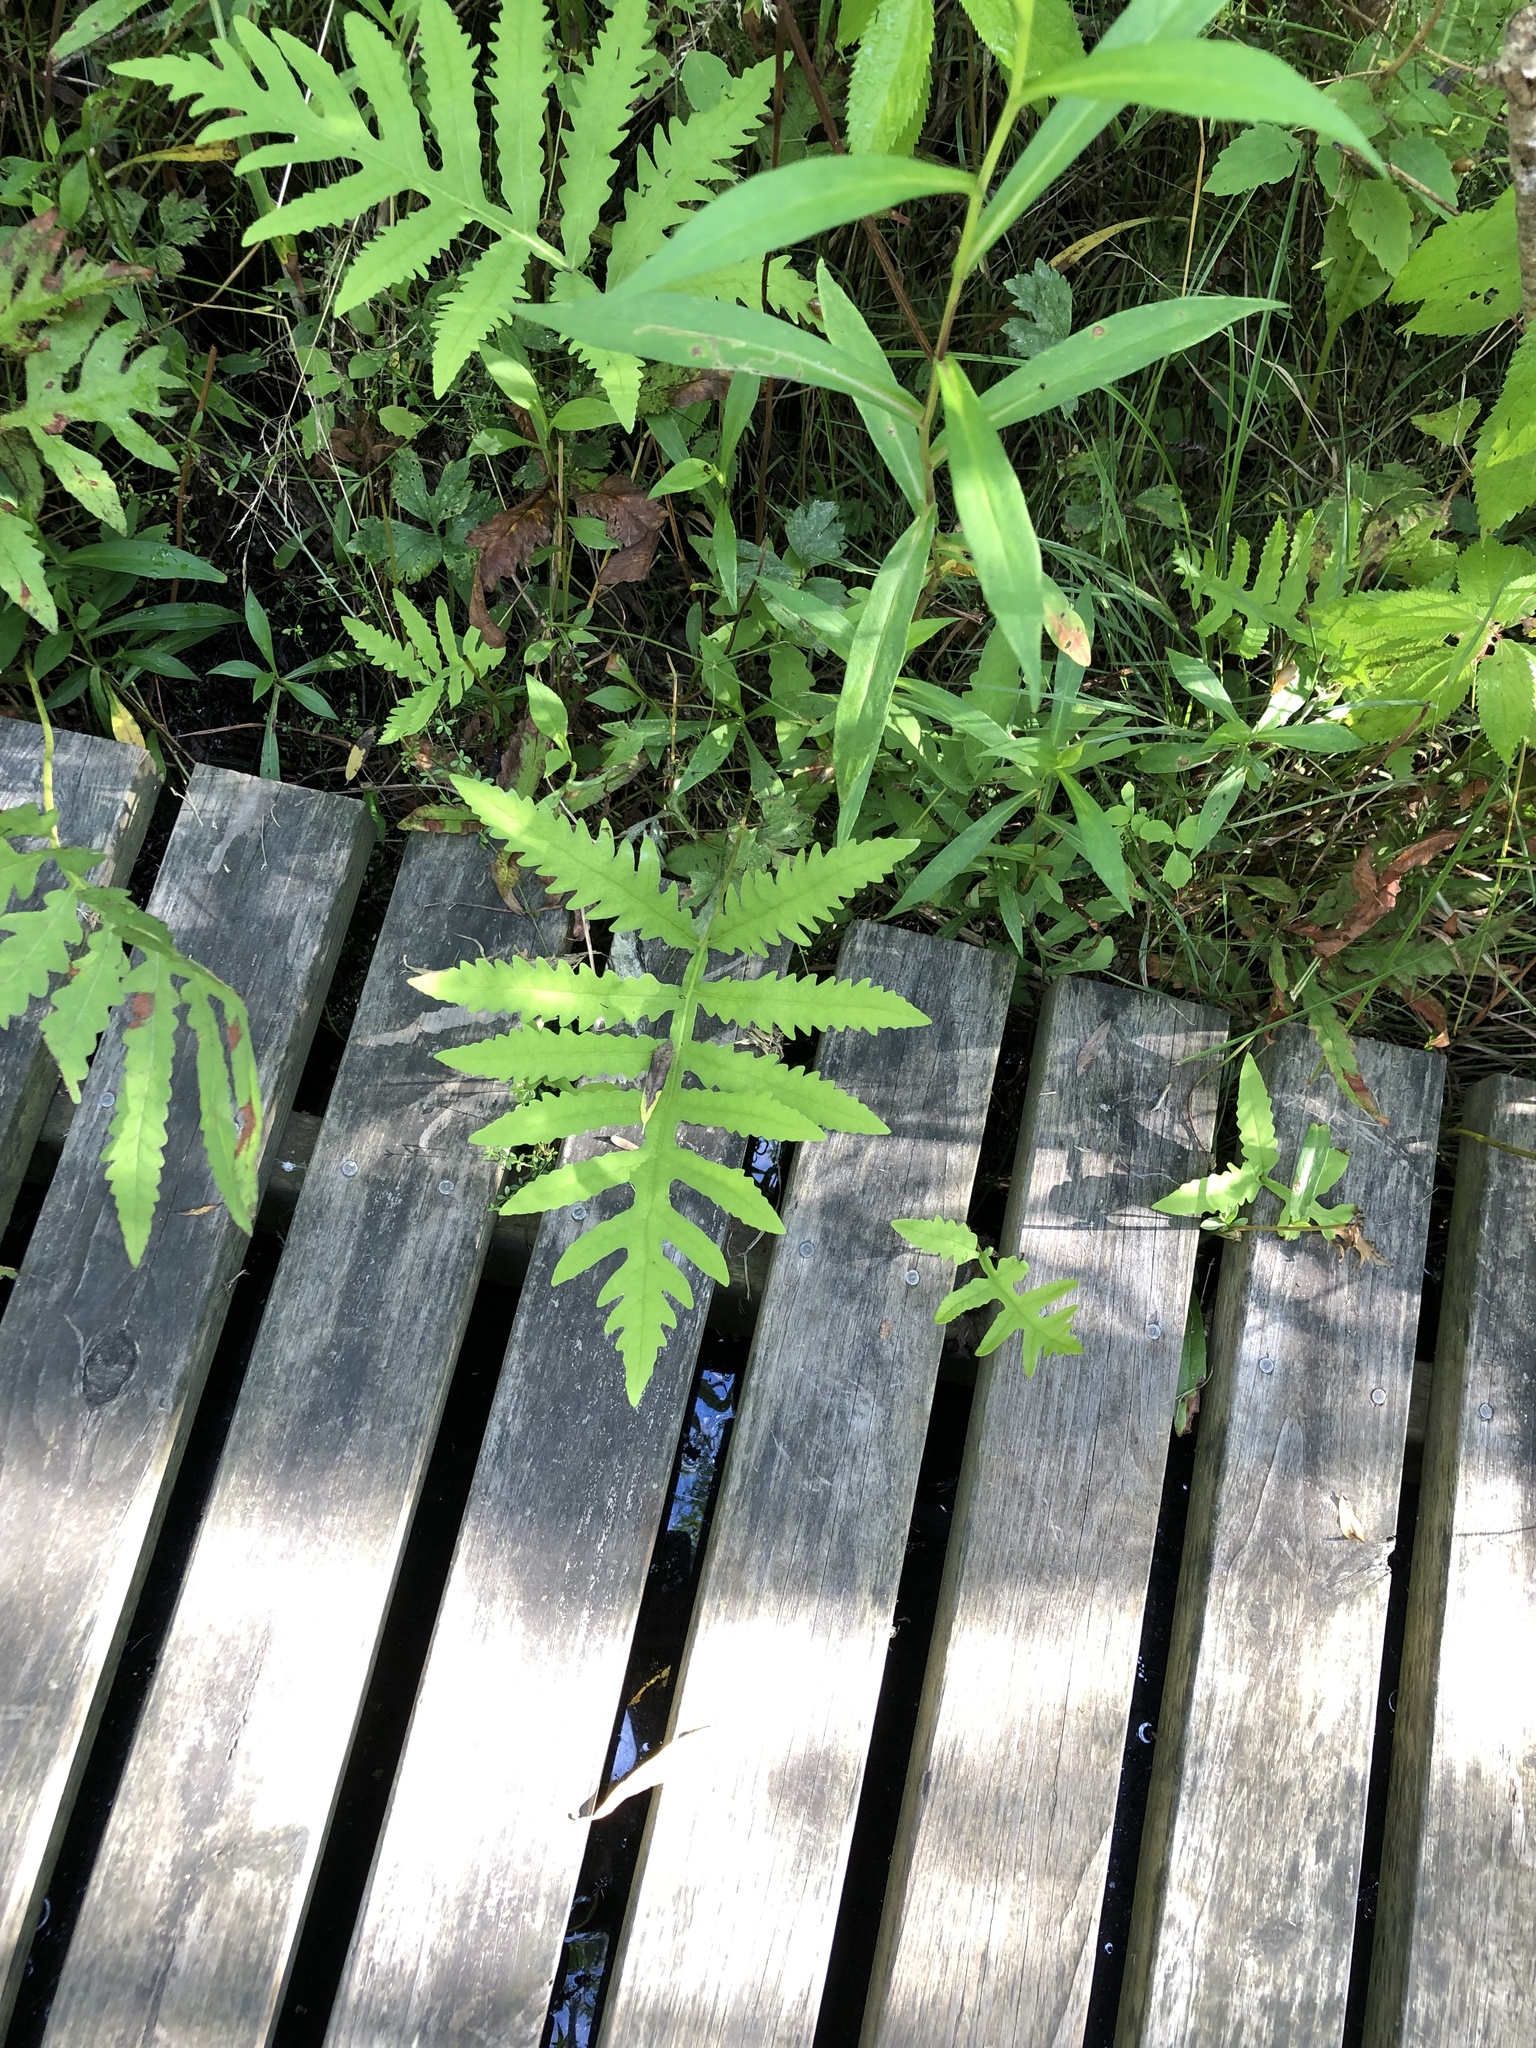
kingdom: Plantae
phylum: Tracheophyta
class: Polypodiopsida
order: Polypodiales
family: Onocleaceae
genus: Onoclea
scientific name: Onoclea sensibilis
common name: Sensitive fern
